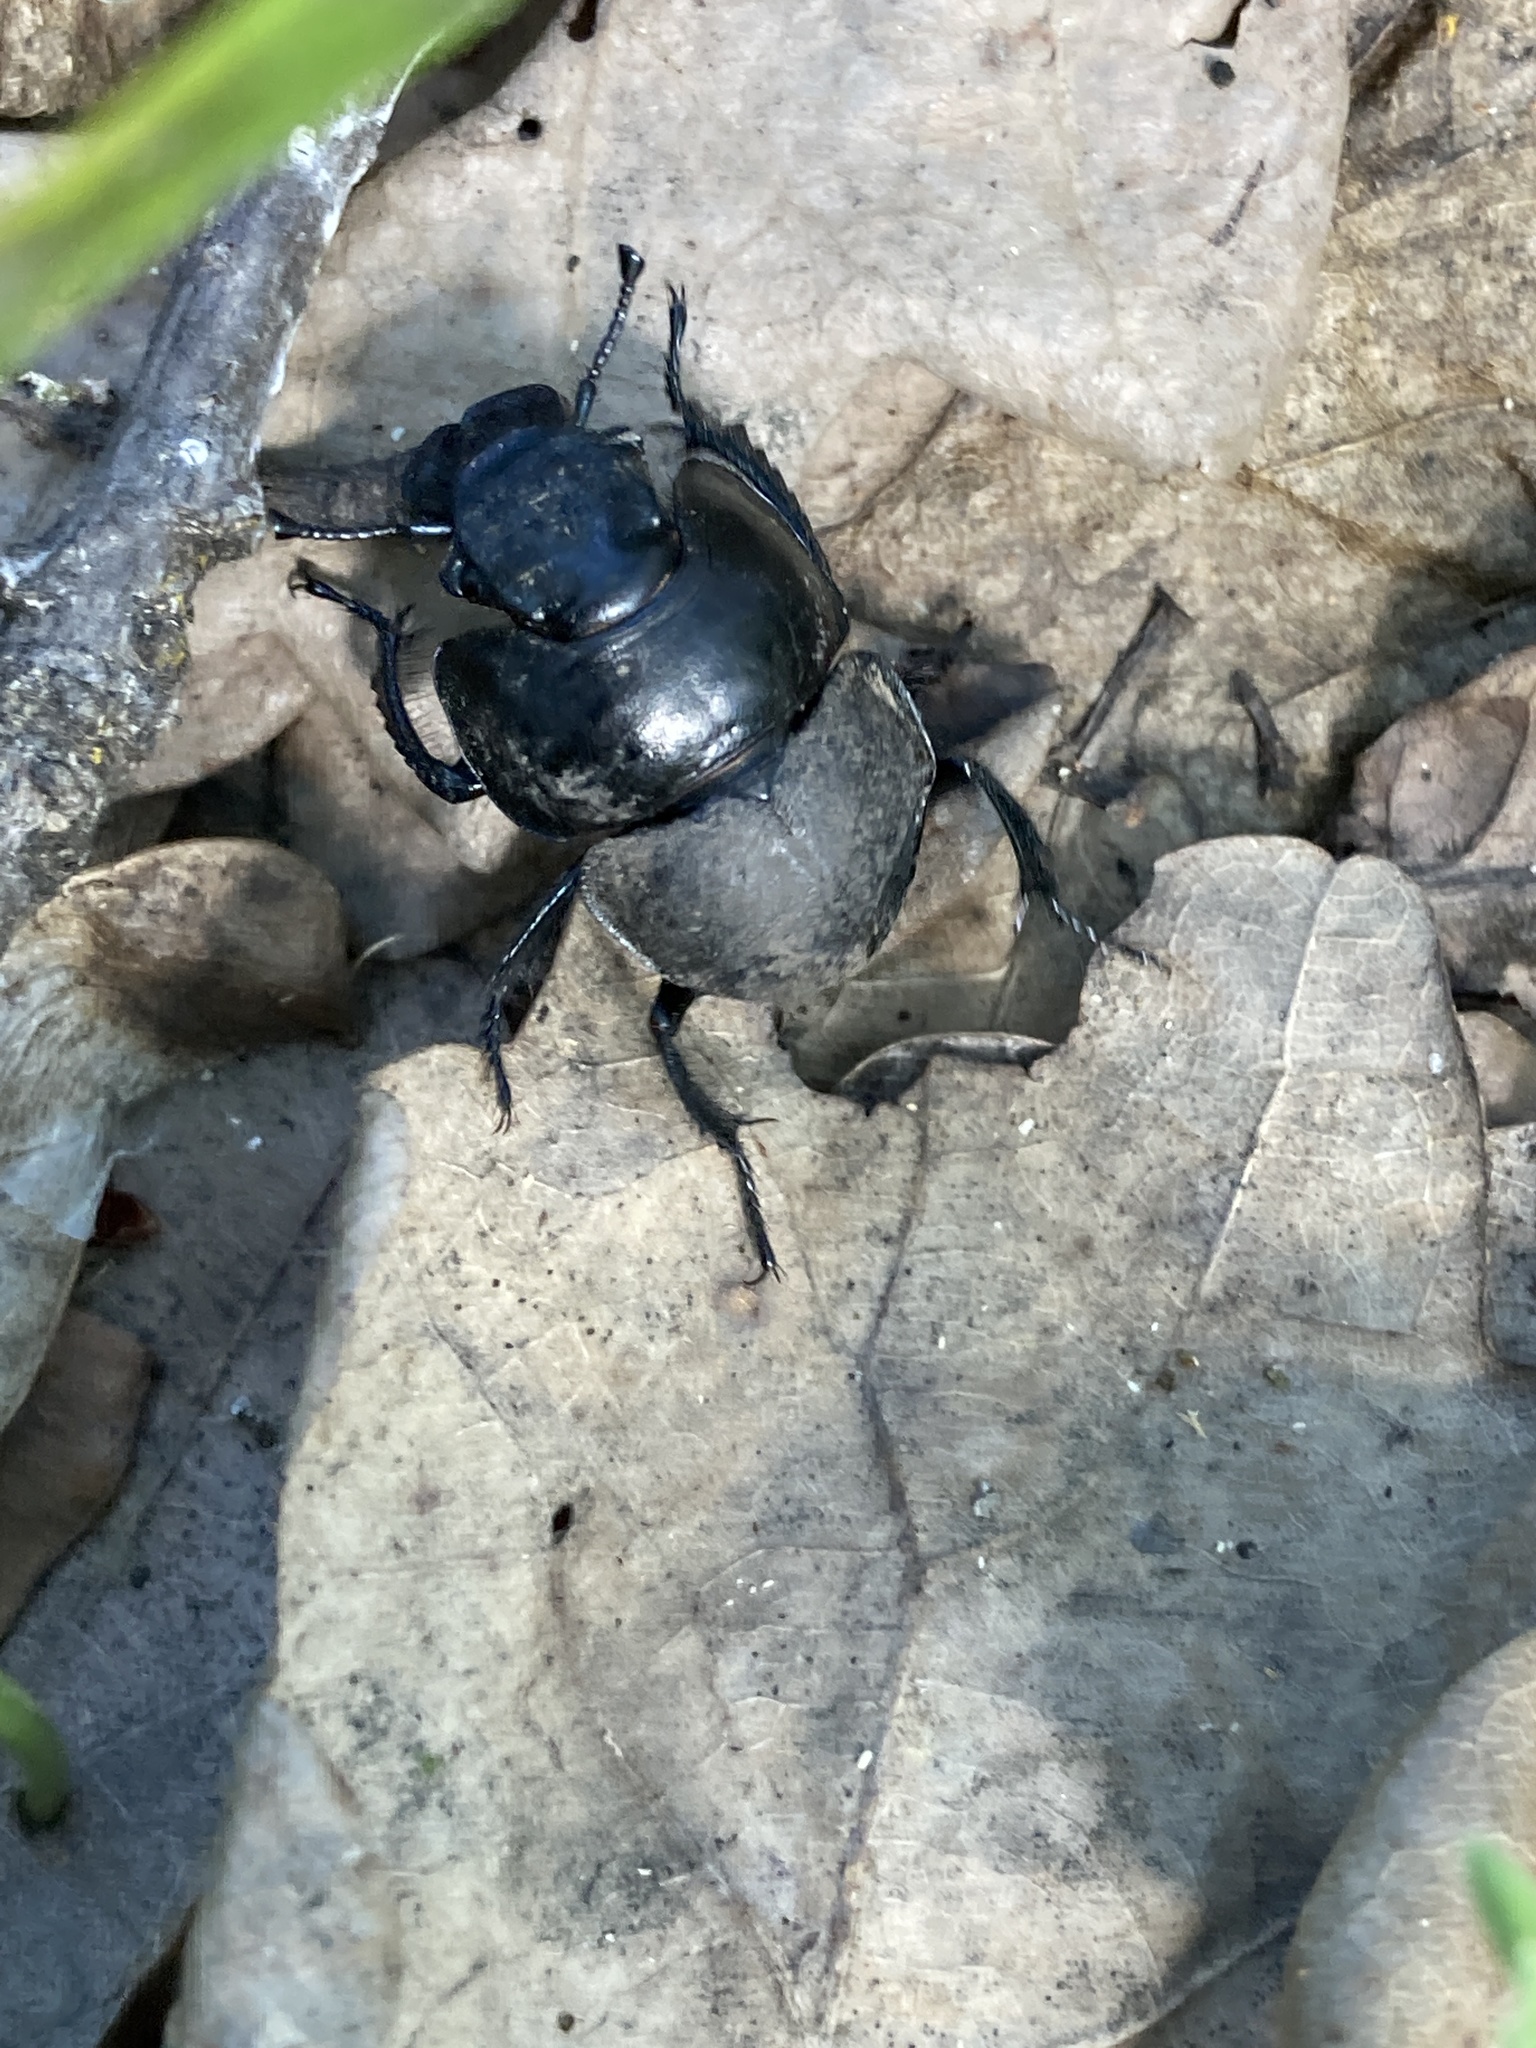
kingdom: Animalia
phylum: Arthropoda
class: Insecta
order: Coleoptera
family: Geotrupidae
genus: Lethrus
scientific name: Lethrus apterus
